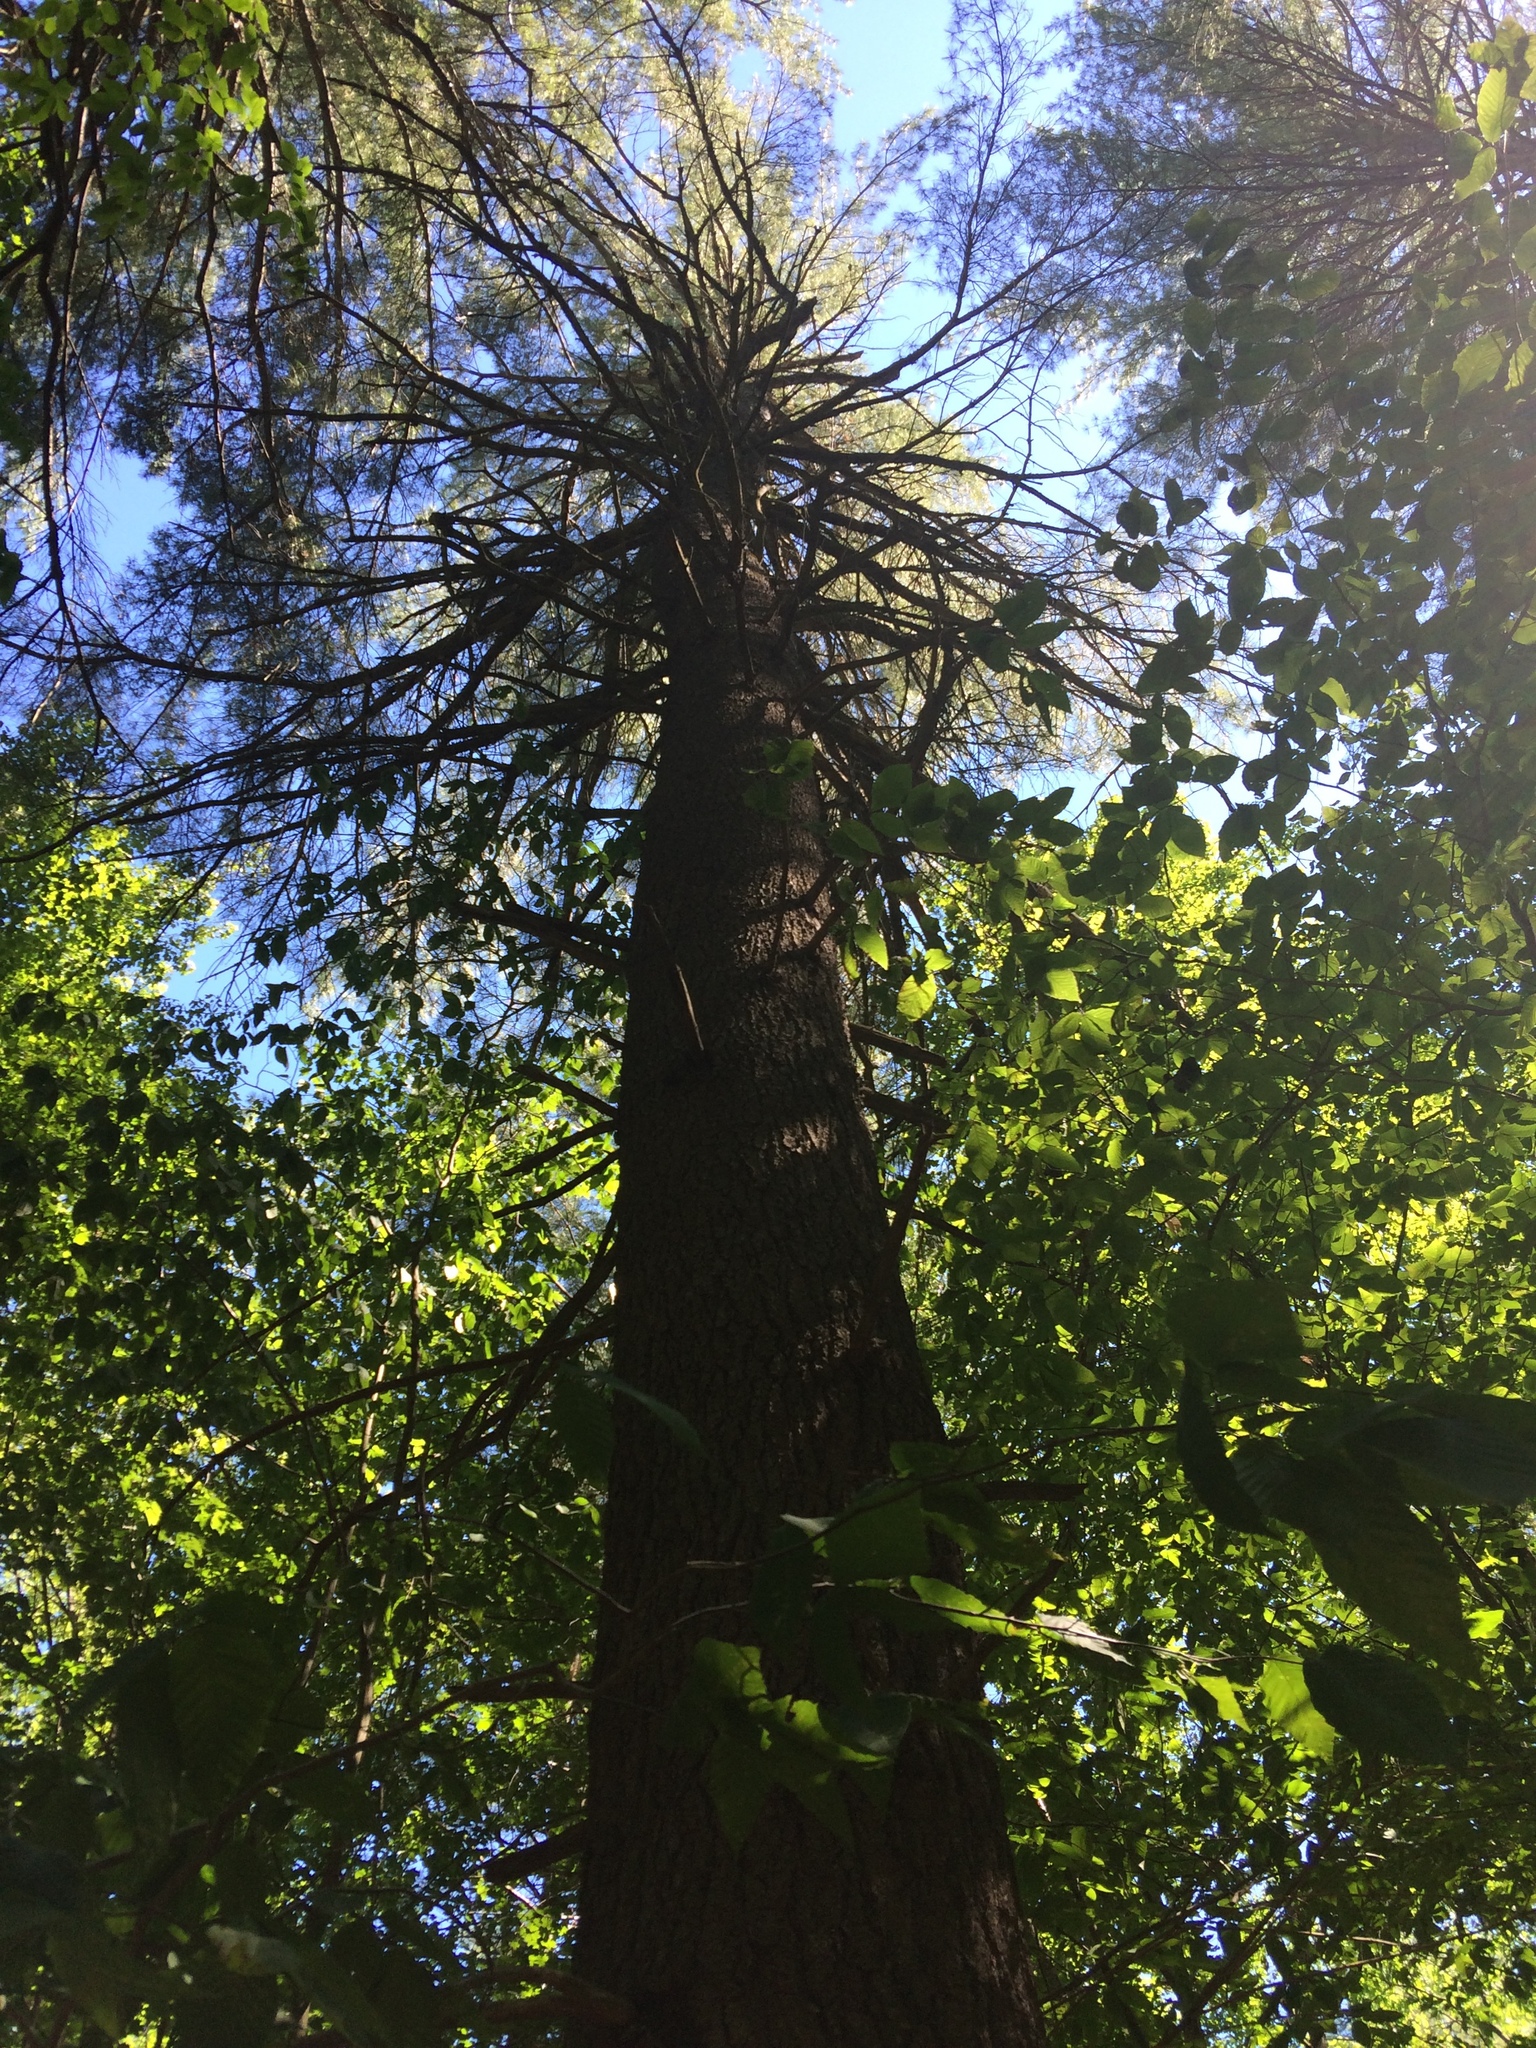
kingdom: Plantae
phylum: Tracheophyta
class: Pinopsida
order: Pinales
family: Pinaceae
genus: Pinus
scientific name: Pinus strobus
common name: Weymouth pine
